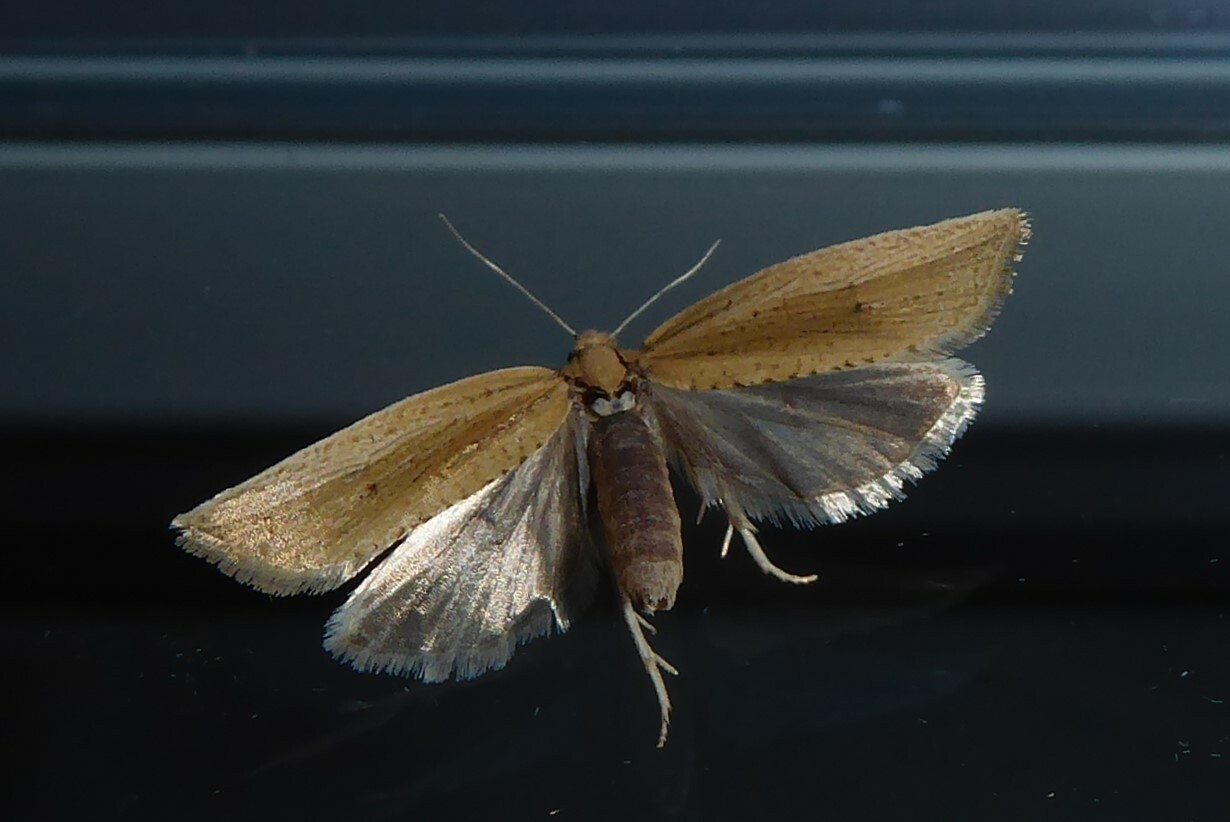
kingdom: Animalia
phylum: Arthropoda
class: Insecta
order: Lepidoptera
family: Tortricidae
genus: Bactra
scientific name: Bactra noteraula
